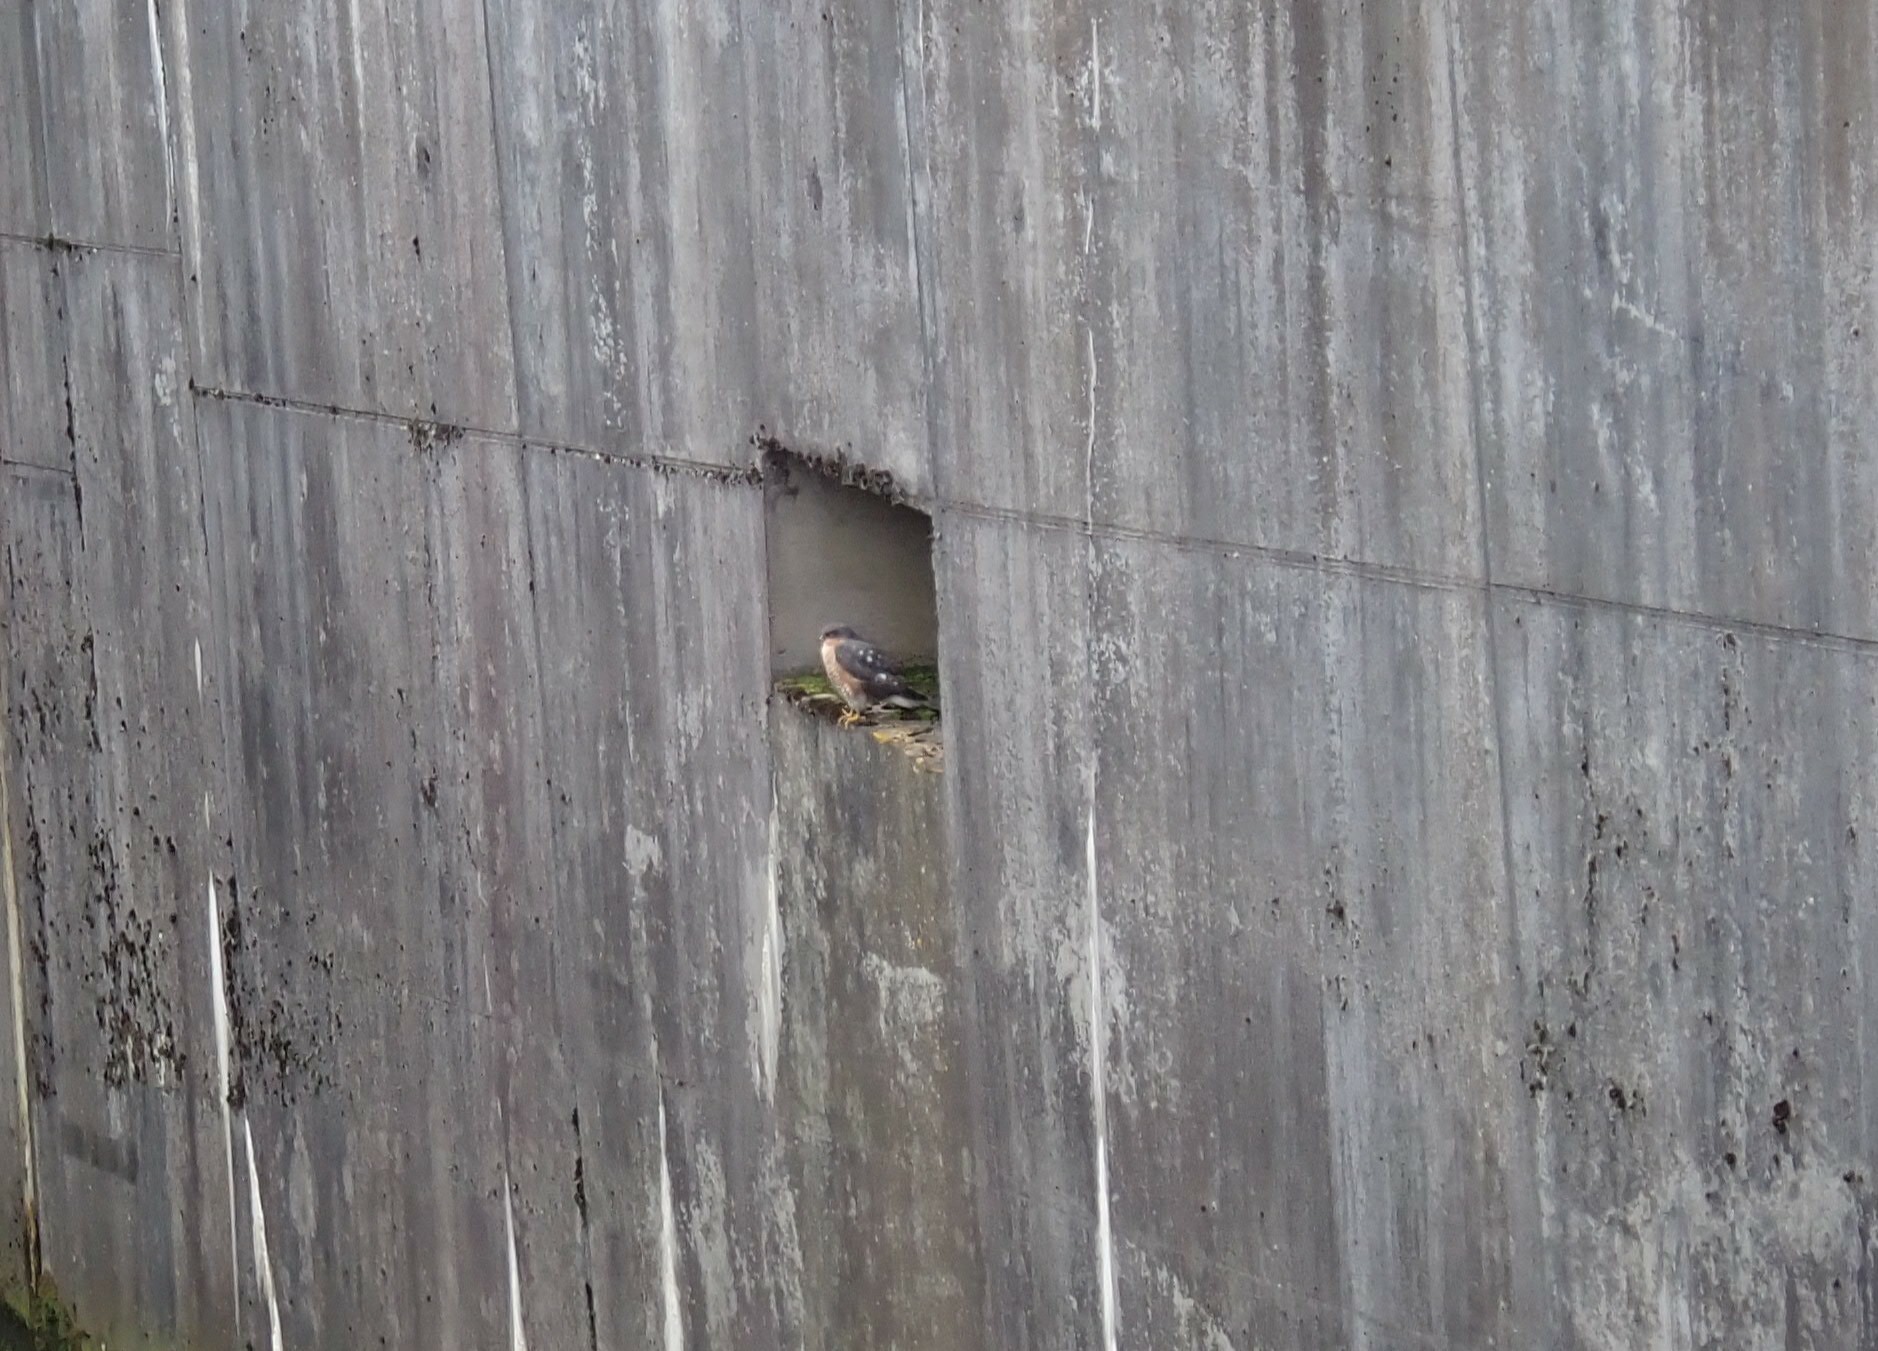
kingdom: Animalia
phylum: Chordata
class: Aves
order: Accipitriformes
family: Accipitridae
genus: Accipiter
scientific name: Accipiter nisus
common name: Eurasian sparrowhawk
